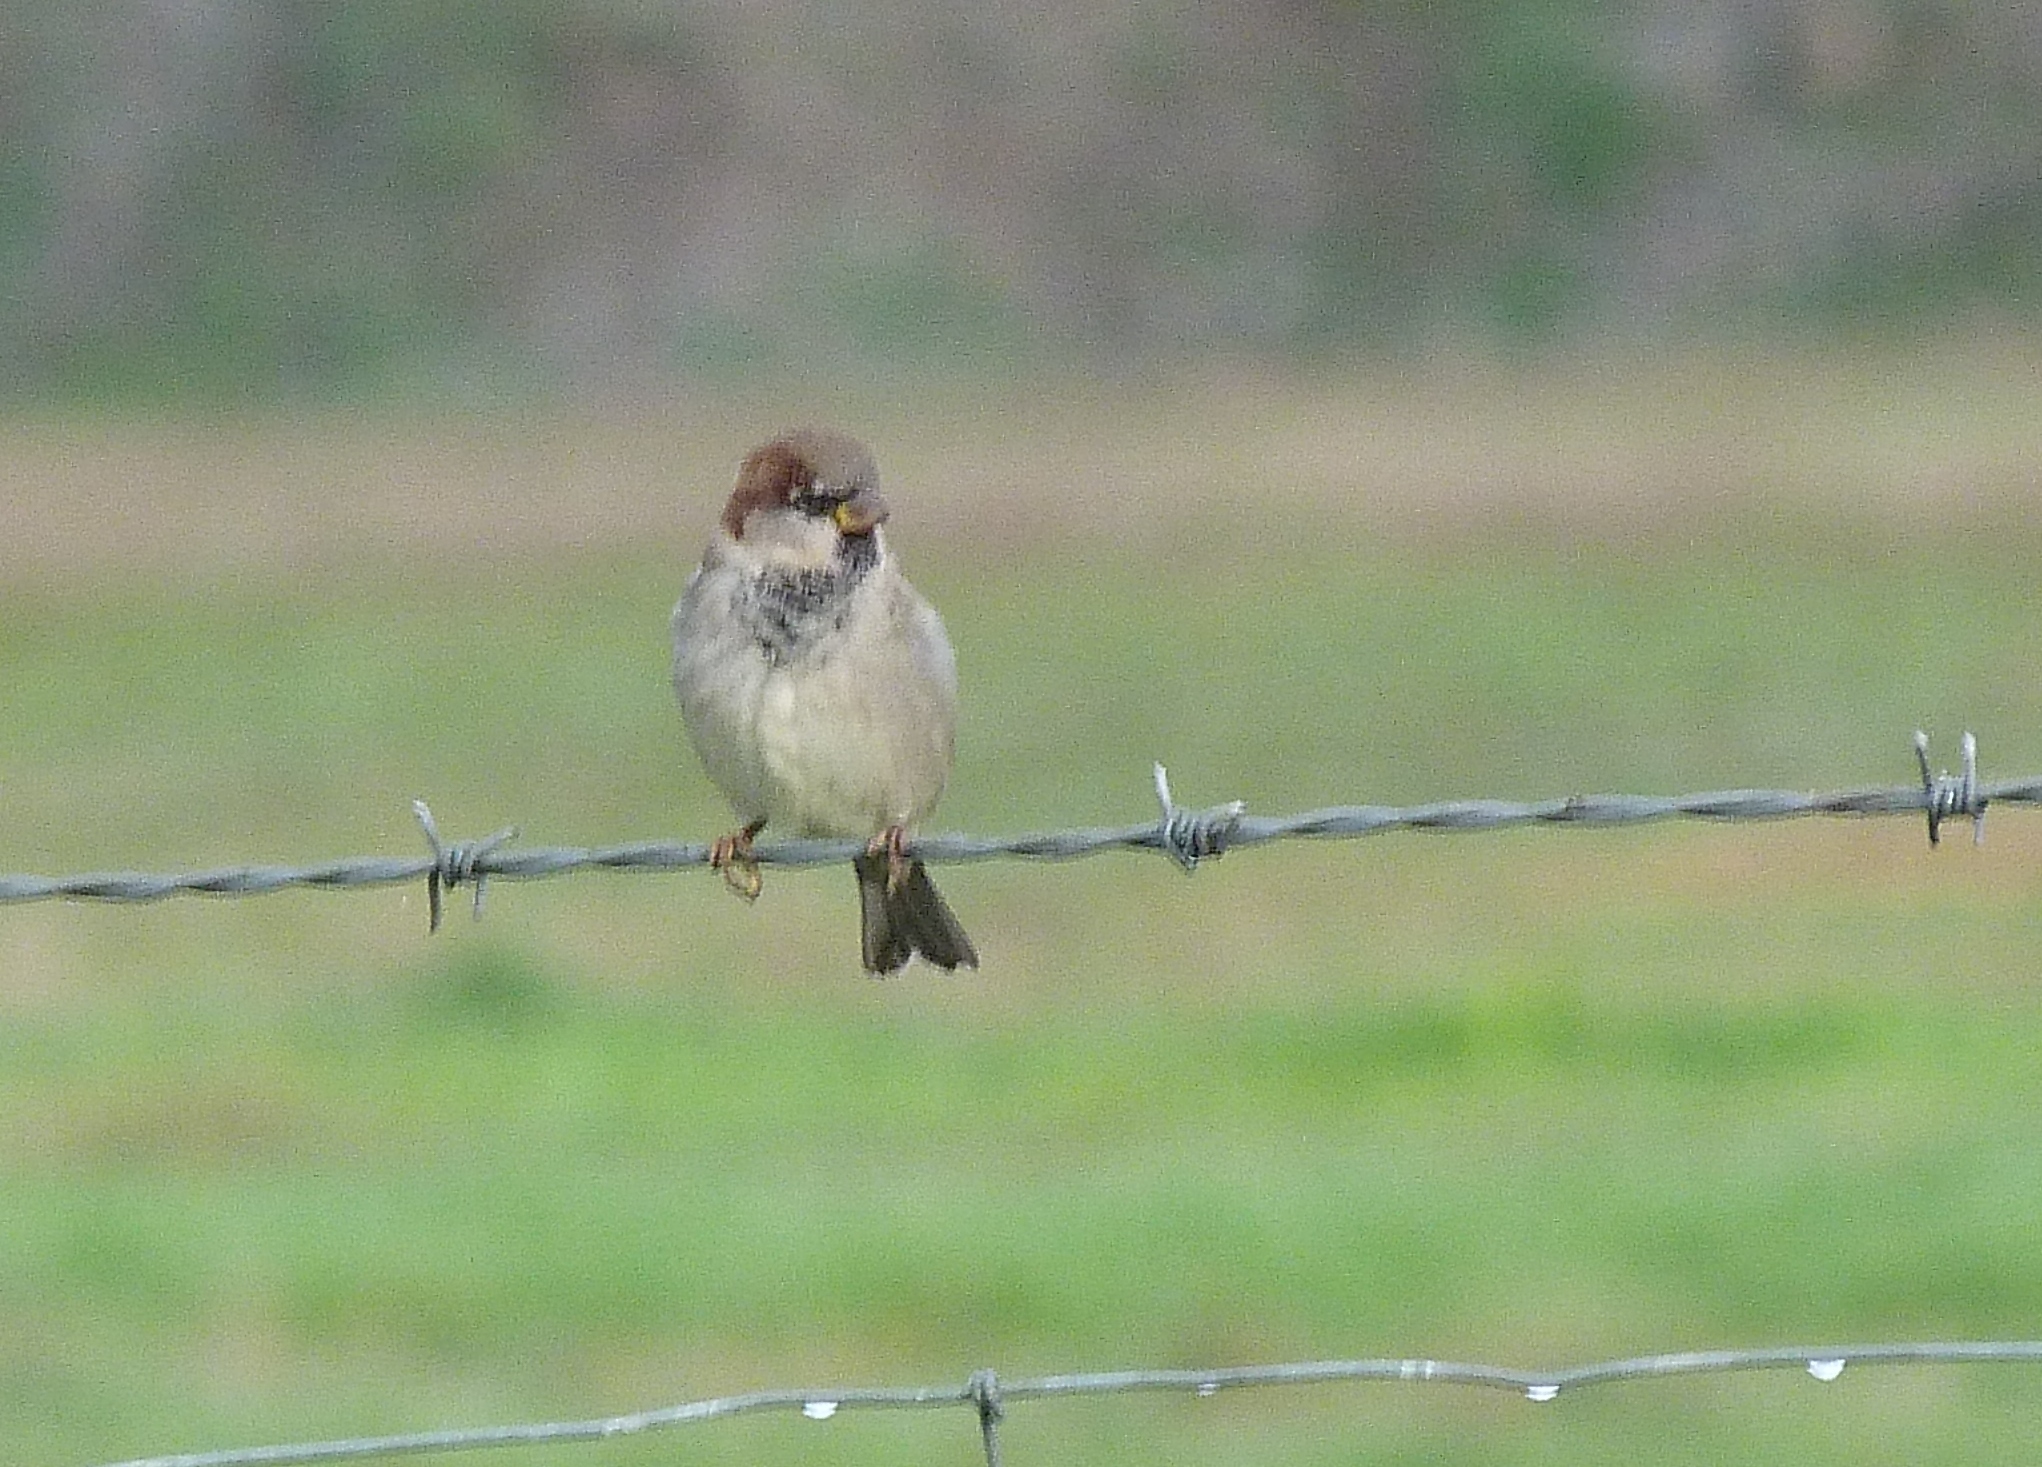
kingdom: Animalia
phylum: Chordata
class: Aves
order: Passeriformes
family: Passeridae
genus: Passer
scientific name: Passer domesticus
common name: House sparrow
